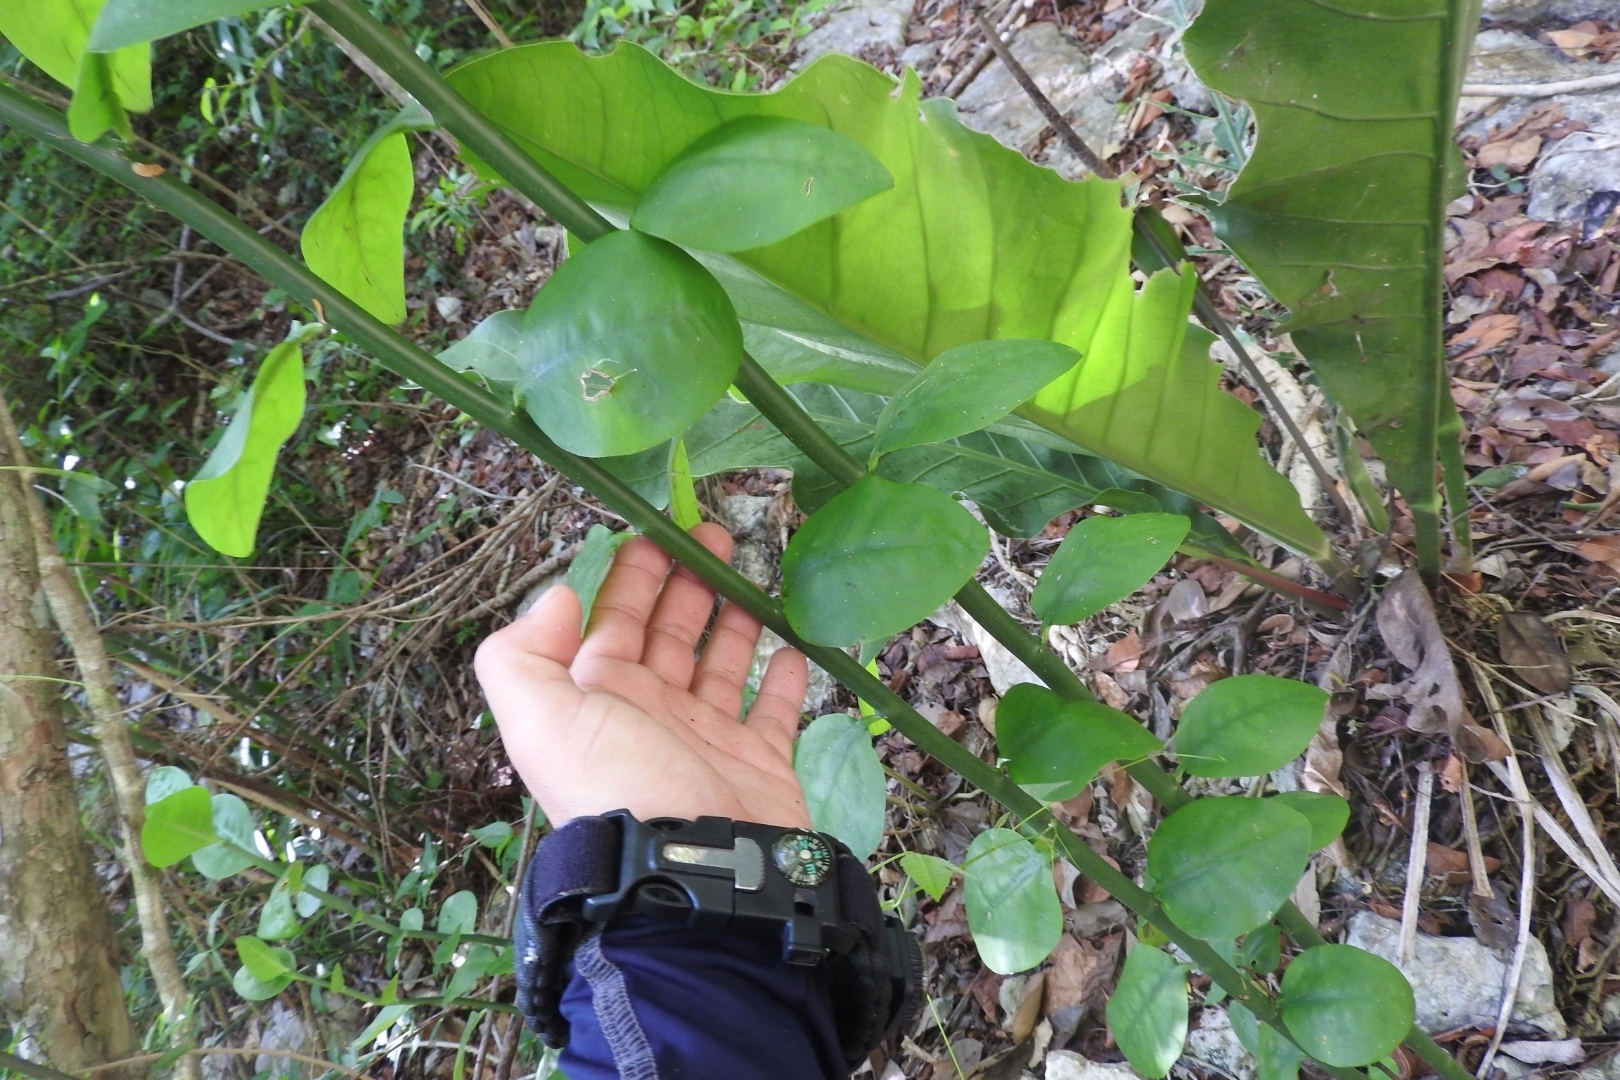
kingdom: Plantae
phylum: Tracheophyta
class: Magnoliopsida
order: Malpighiales
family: Euphorbiaceae
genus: Euphorbia
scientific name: Euphorbia tithymaloides
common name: Slipperplant
